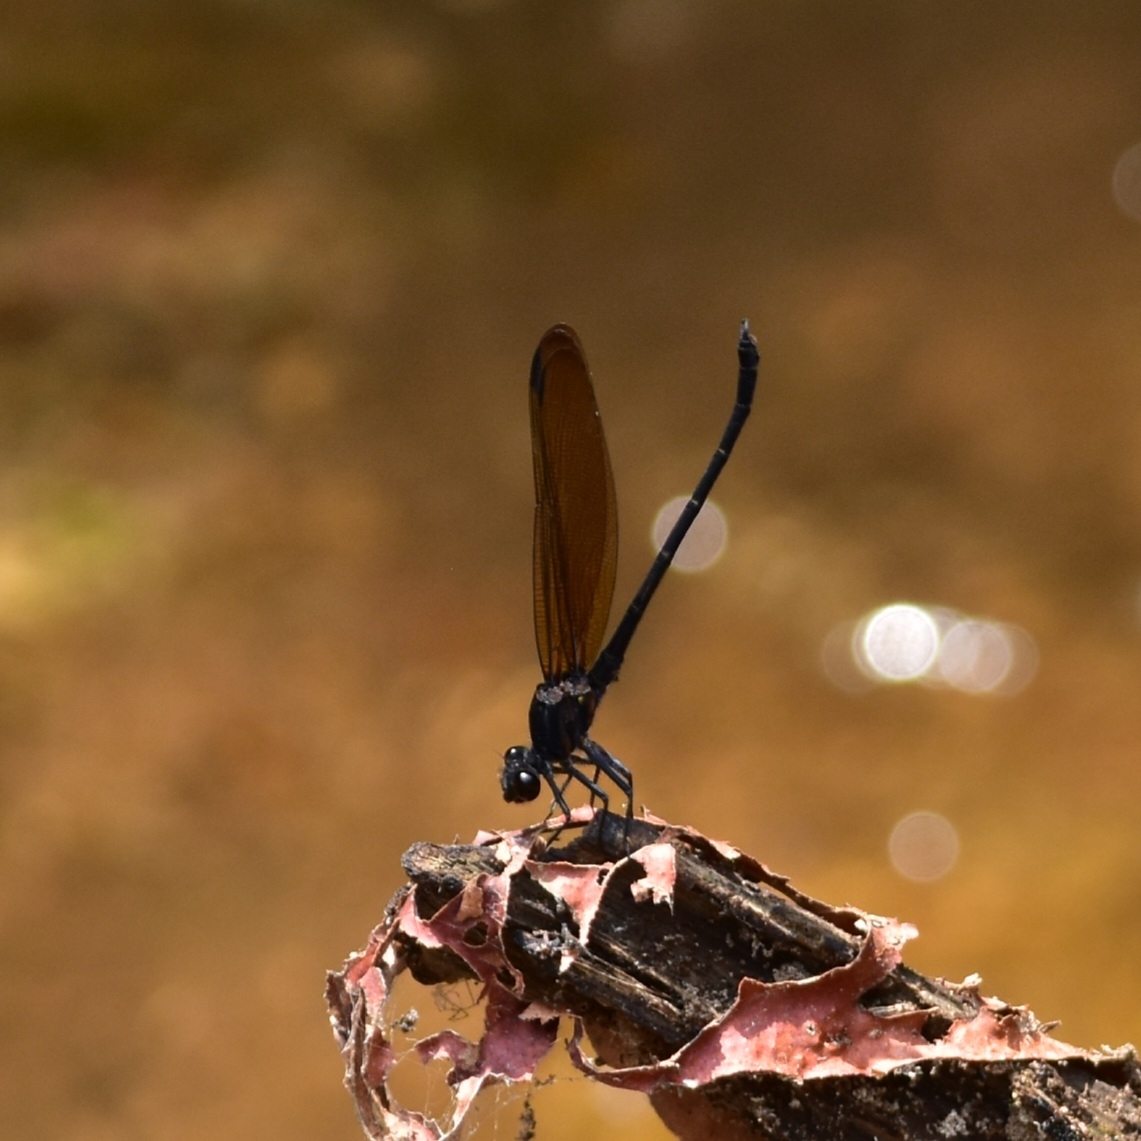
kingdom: Animalia
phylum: Arthropoda
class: Insecta
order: Odonata
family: Euphaeidae
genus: Dysphaea
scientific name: Dysphaea ethela
